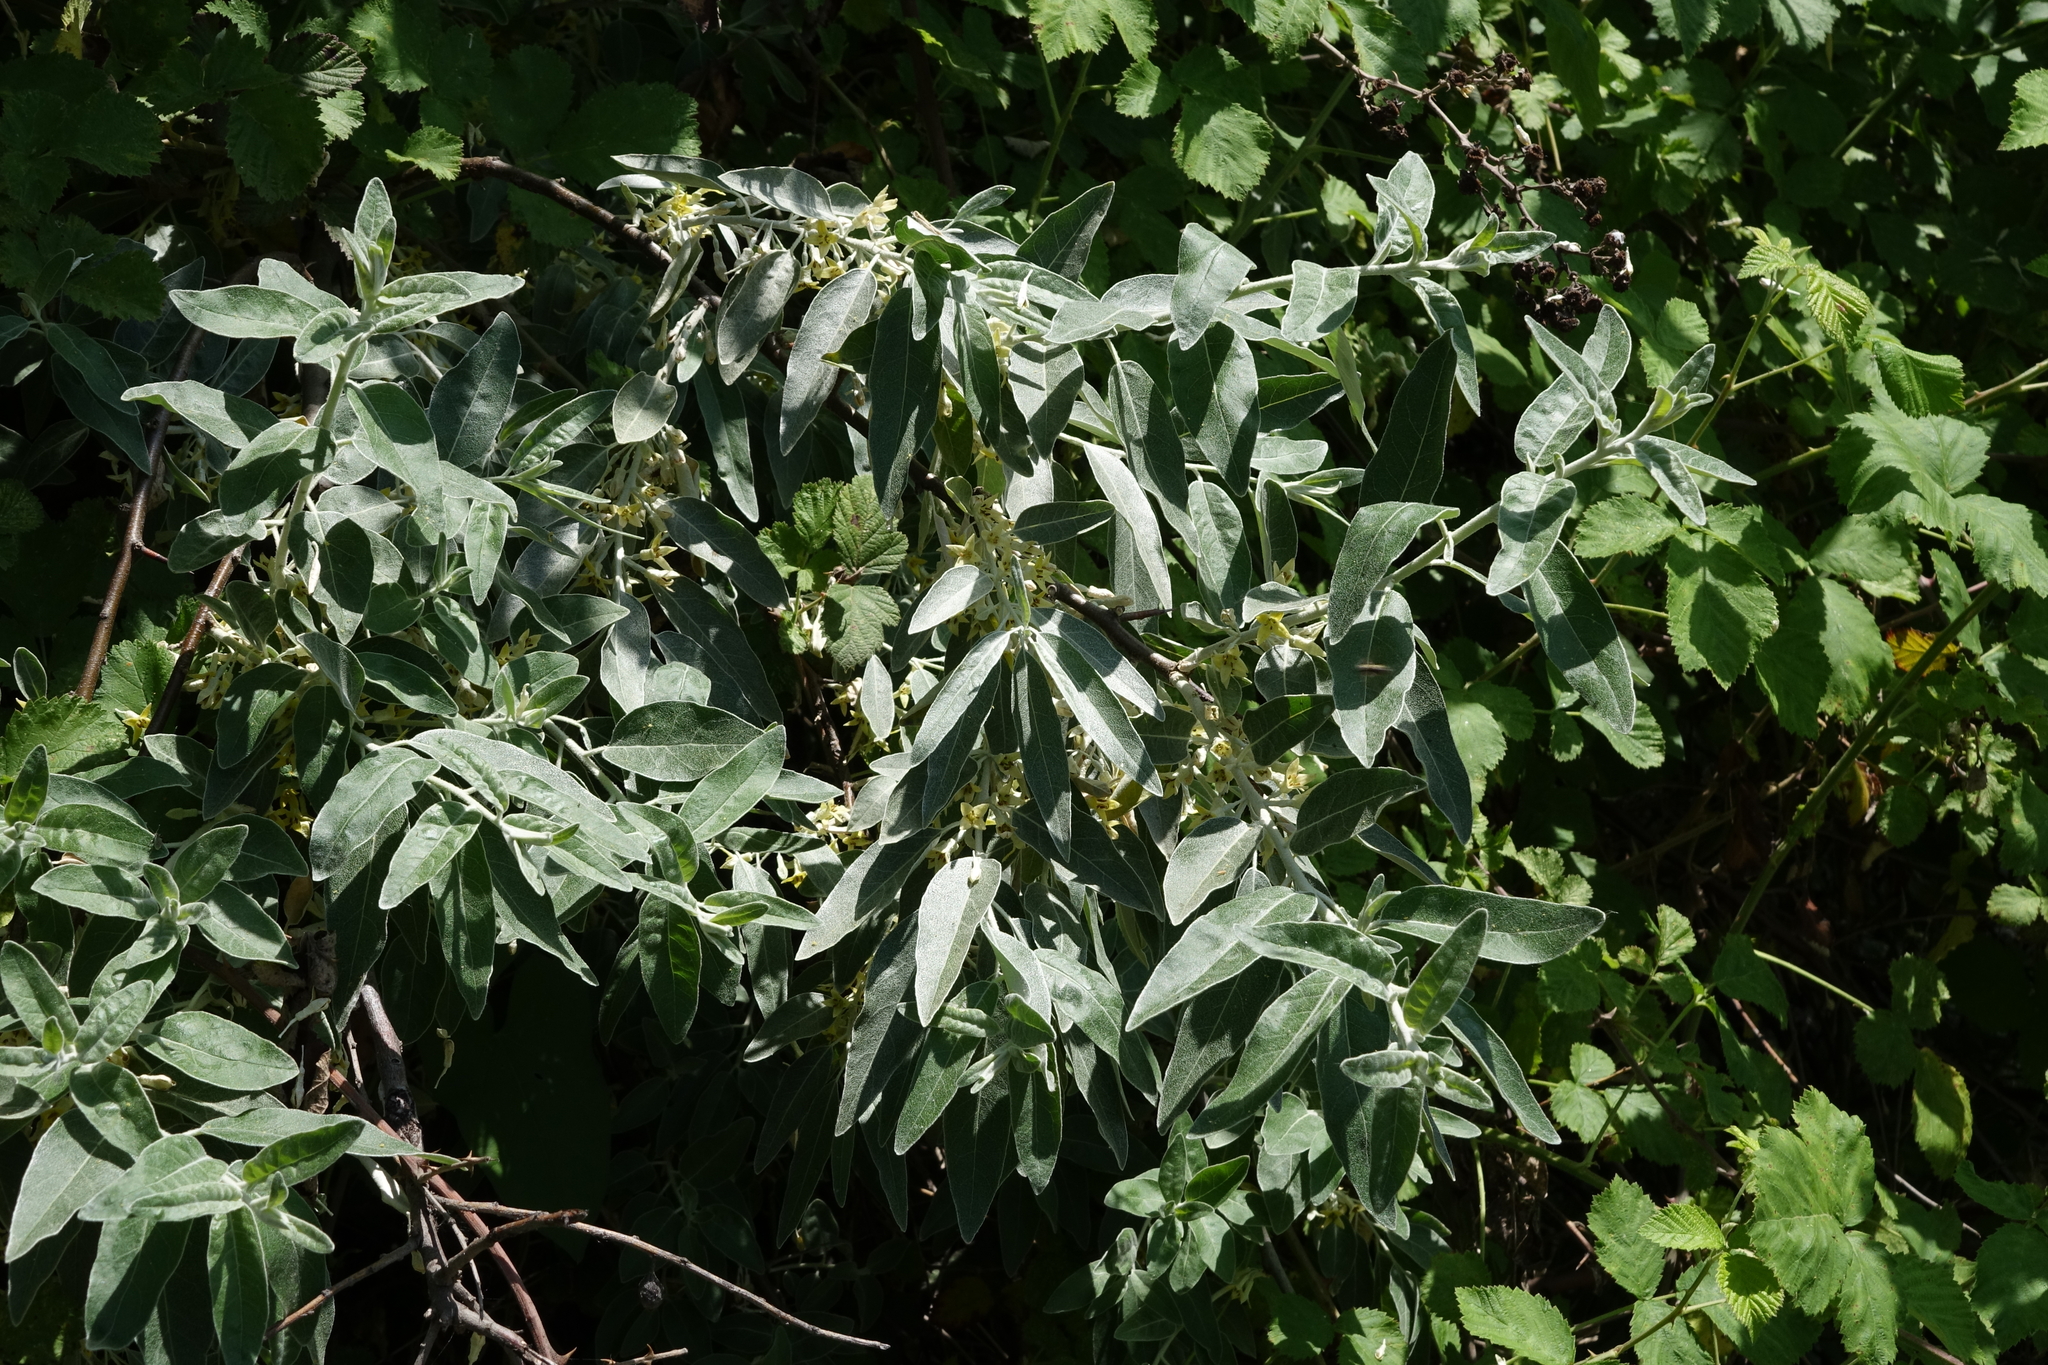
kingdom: Plantae
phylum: Tracheophyta
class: Magnoliopsida
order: Rosales
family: Elaeagnaceae
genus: Elaeagnus
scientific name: Elaeagnus angustifolia
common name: Russian olive
